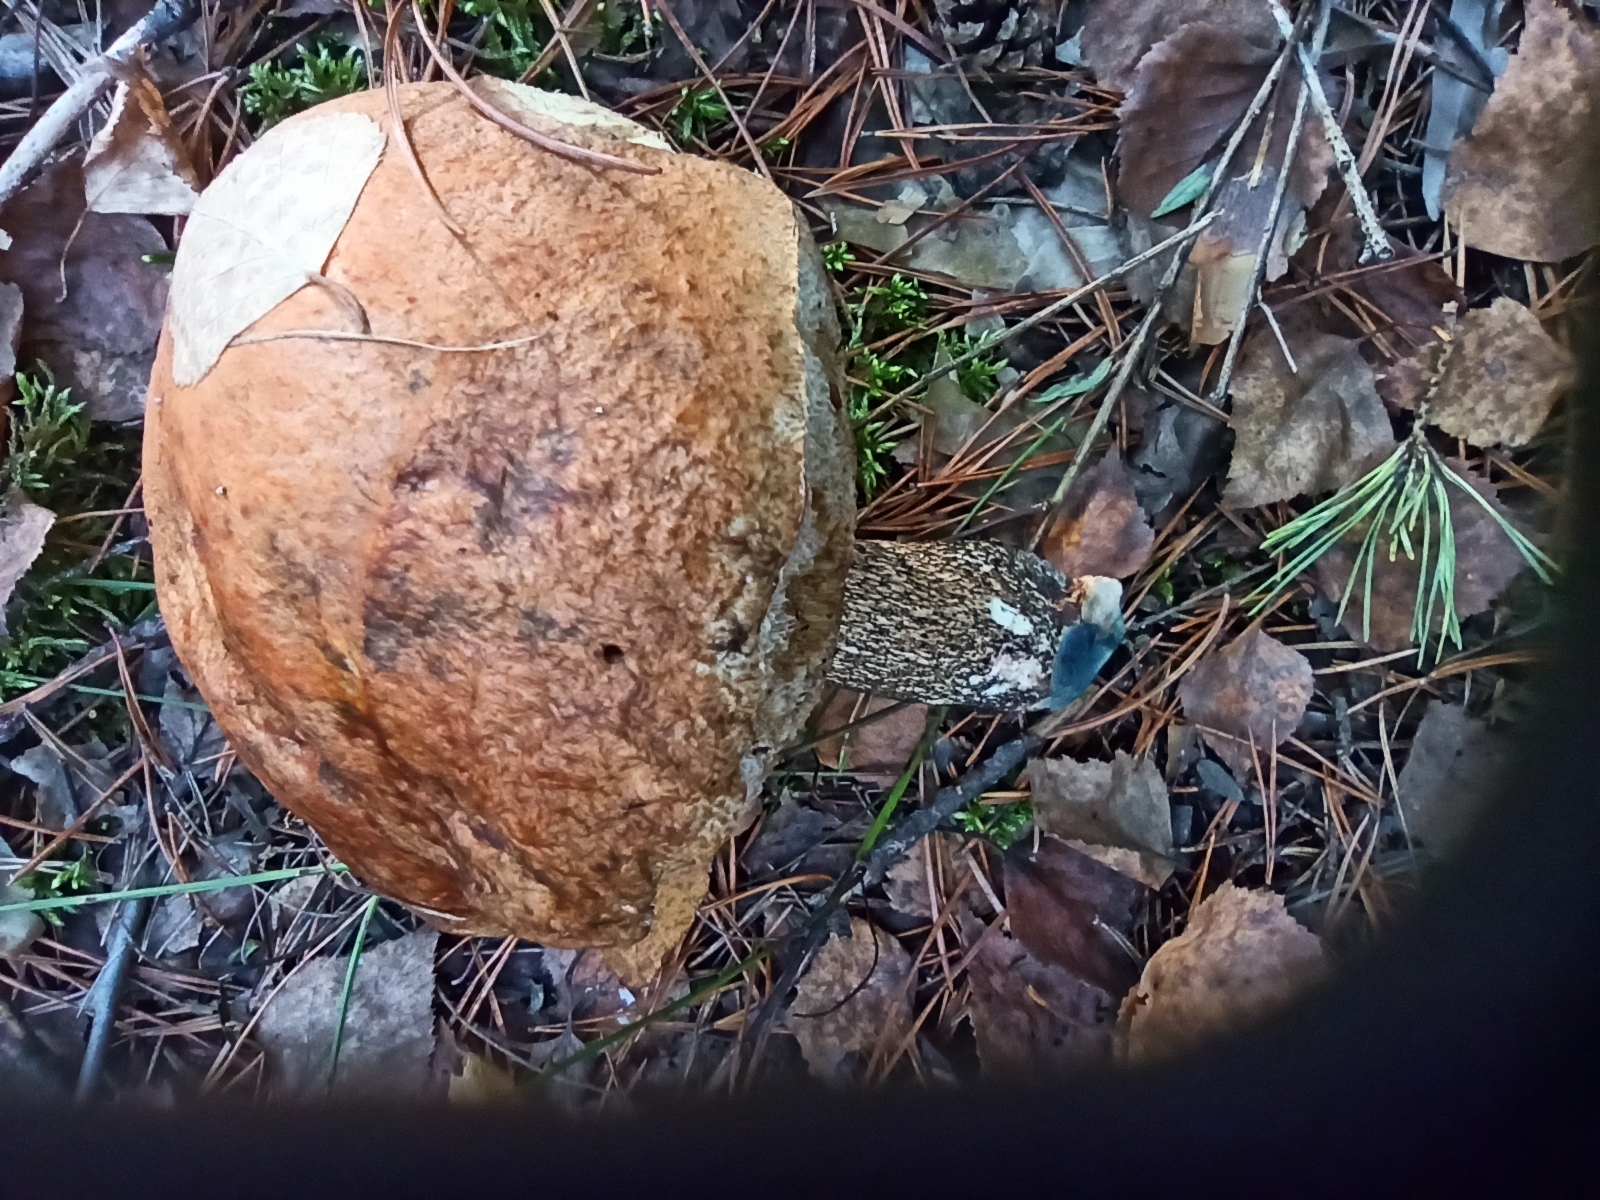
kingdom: Fungi
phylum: Basidiomycota
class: Agaricomycetes
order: Boletales
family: Boletaceae
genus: Leccinum
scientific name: Leccinum versipelle
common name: Orange birch bolete
